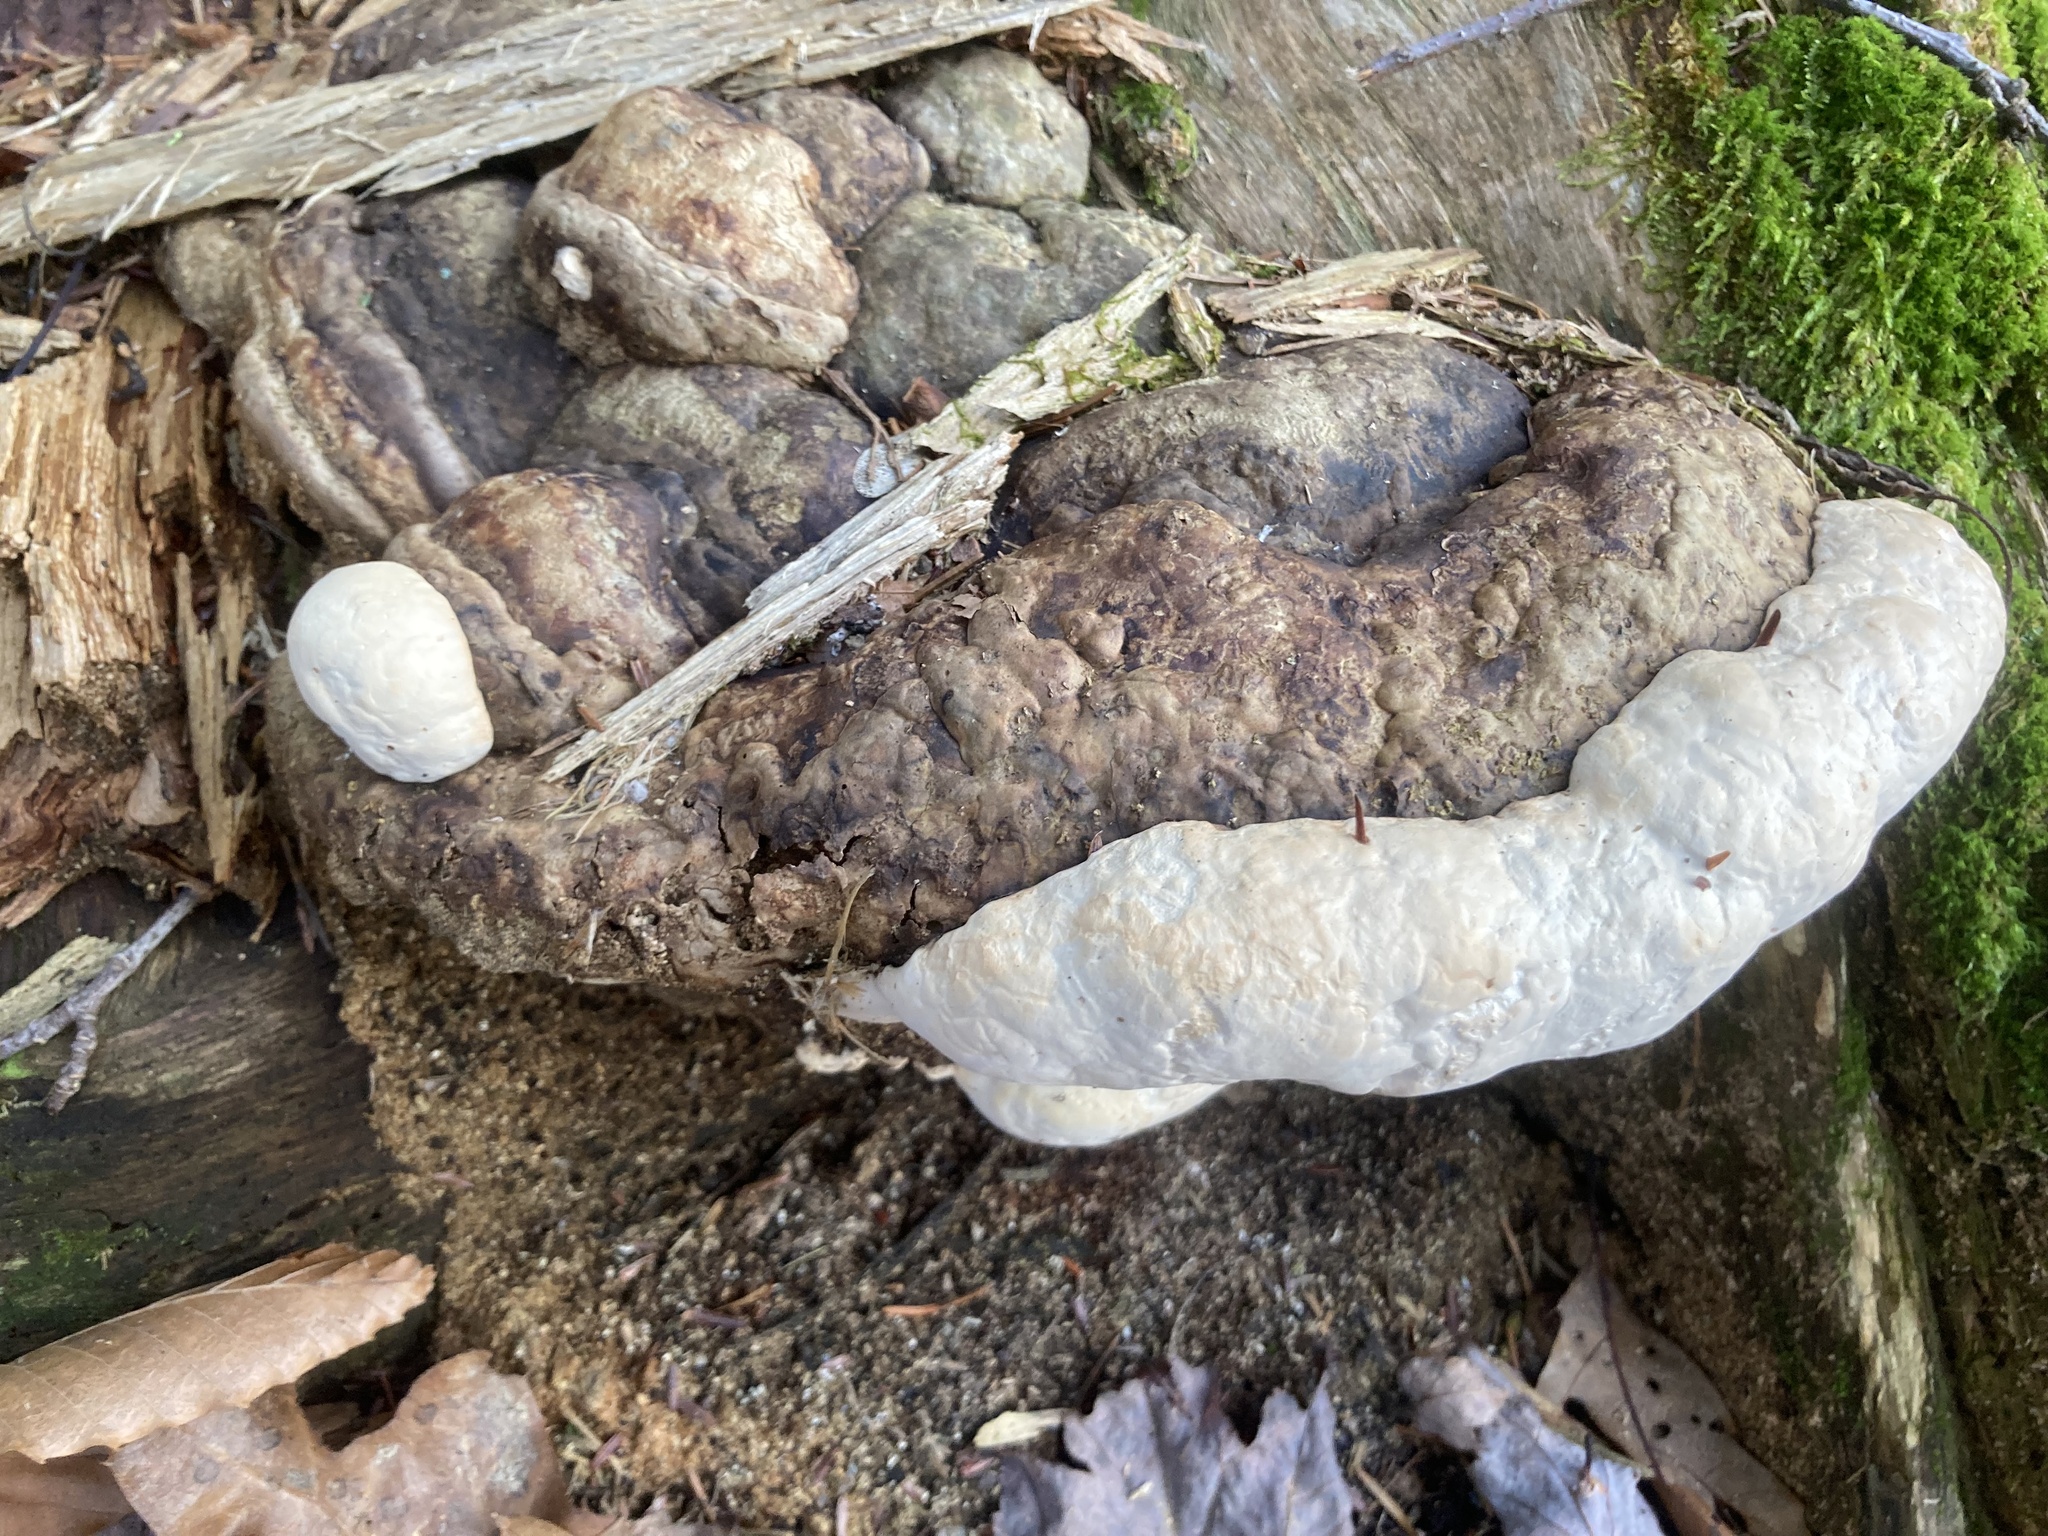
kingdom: Fungi
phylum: Basidiomycota
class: Agaricomycetes
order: Polyporales
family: Fomitopsidaceae
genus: Fomitopsis
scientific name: Fomitopsis ochracea
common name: American brown fomitopsis
